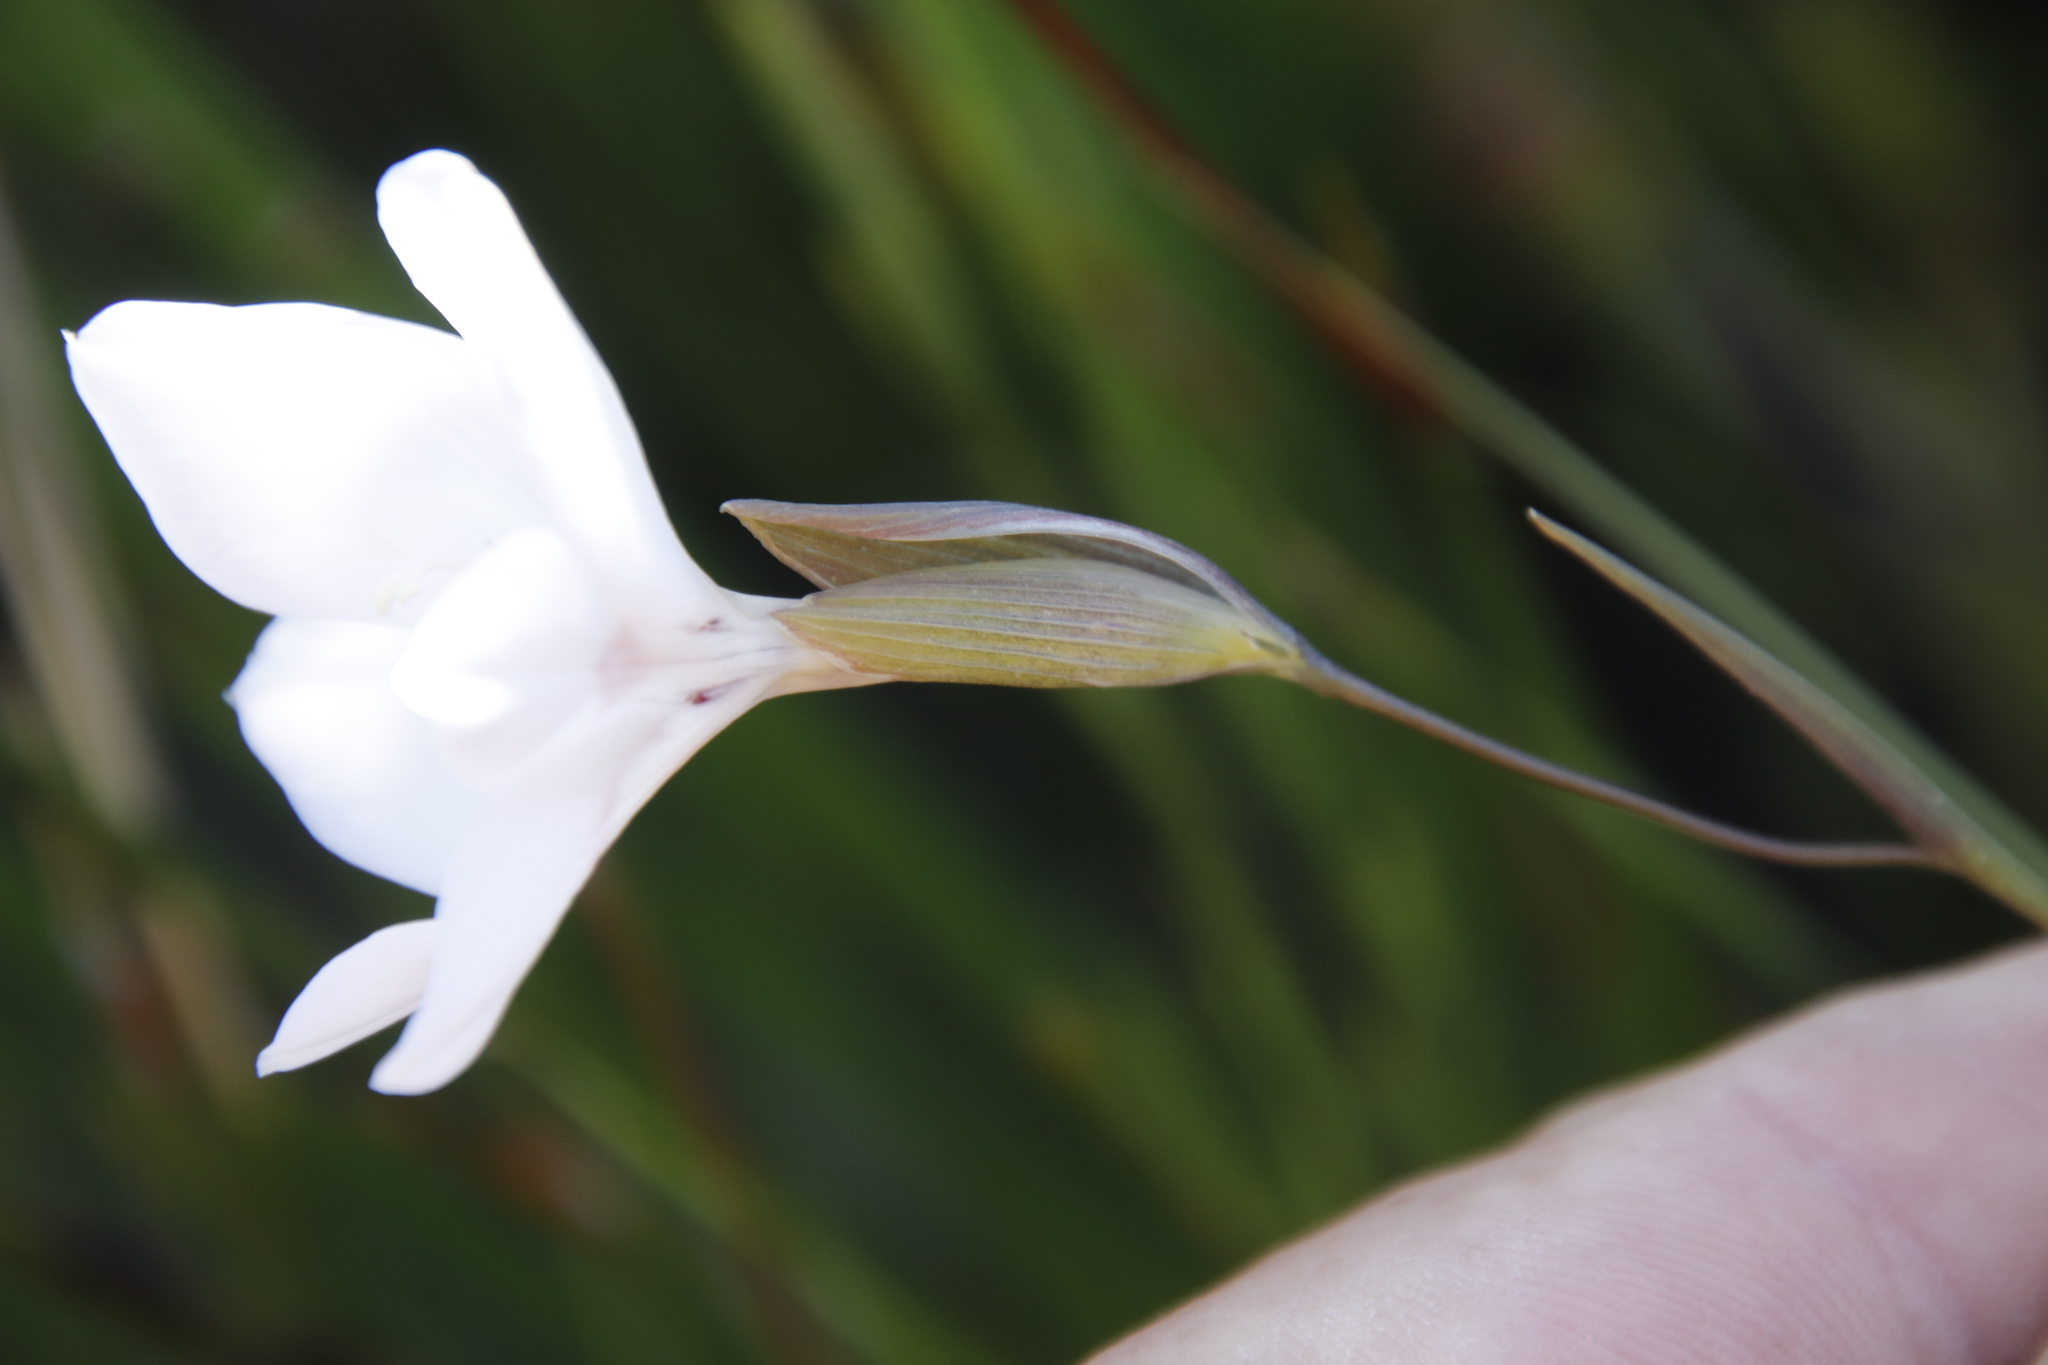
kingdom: Plantae
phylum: Tracheophyta
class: Liliopsida
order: Asparagales
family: Iridaceae
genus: Gladiolus
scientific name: Gladiolus debilis
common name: Painted-lady
